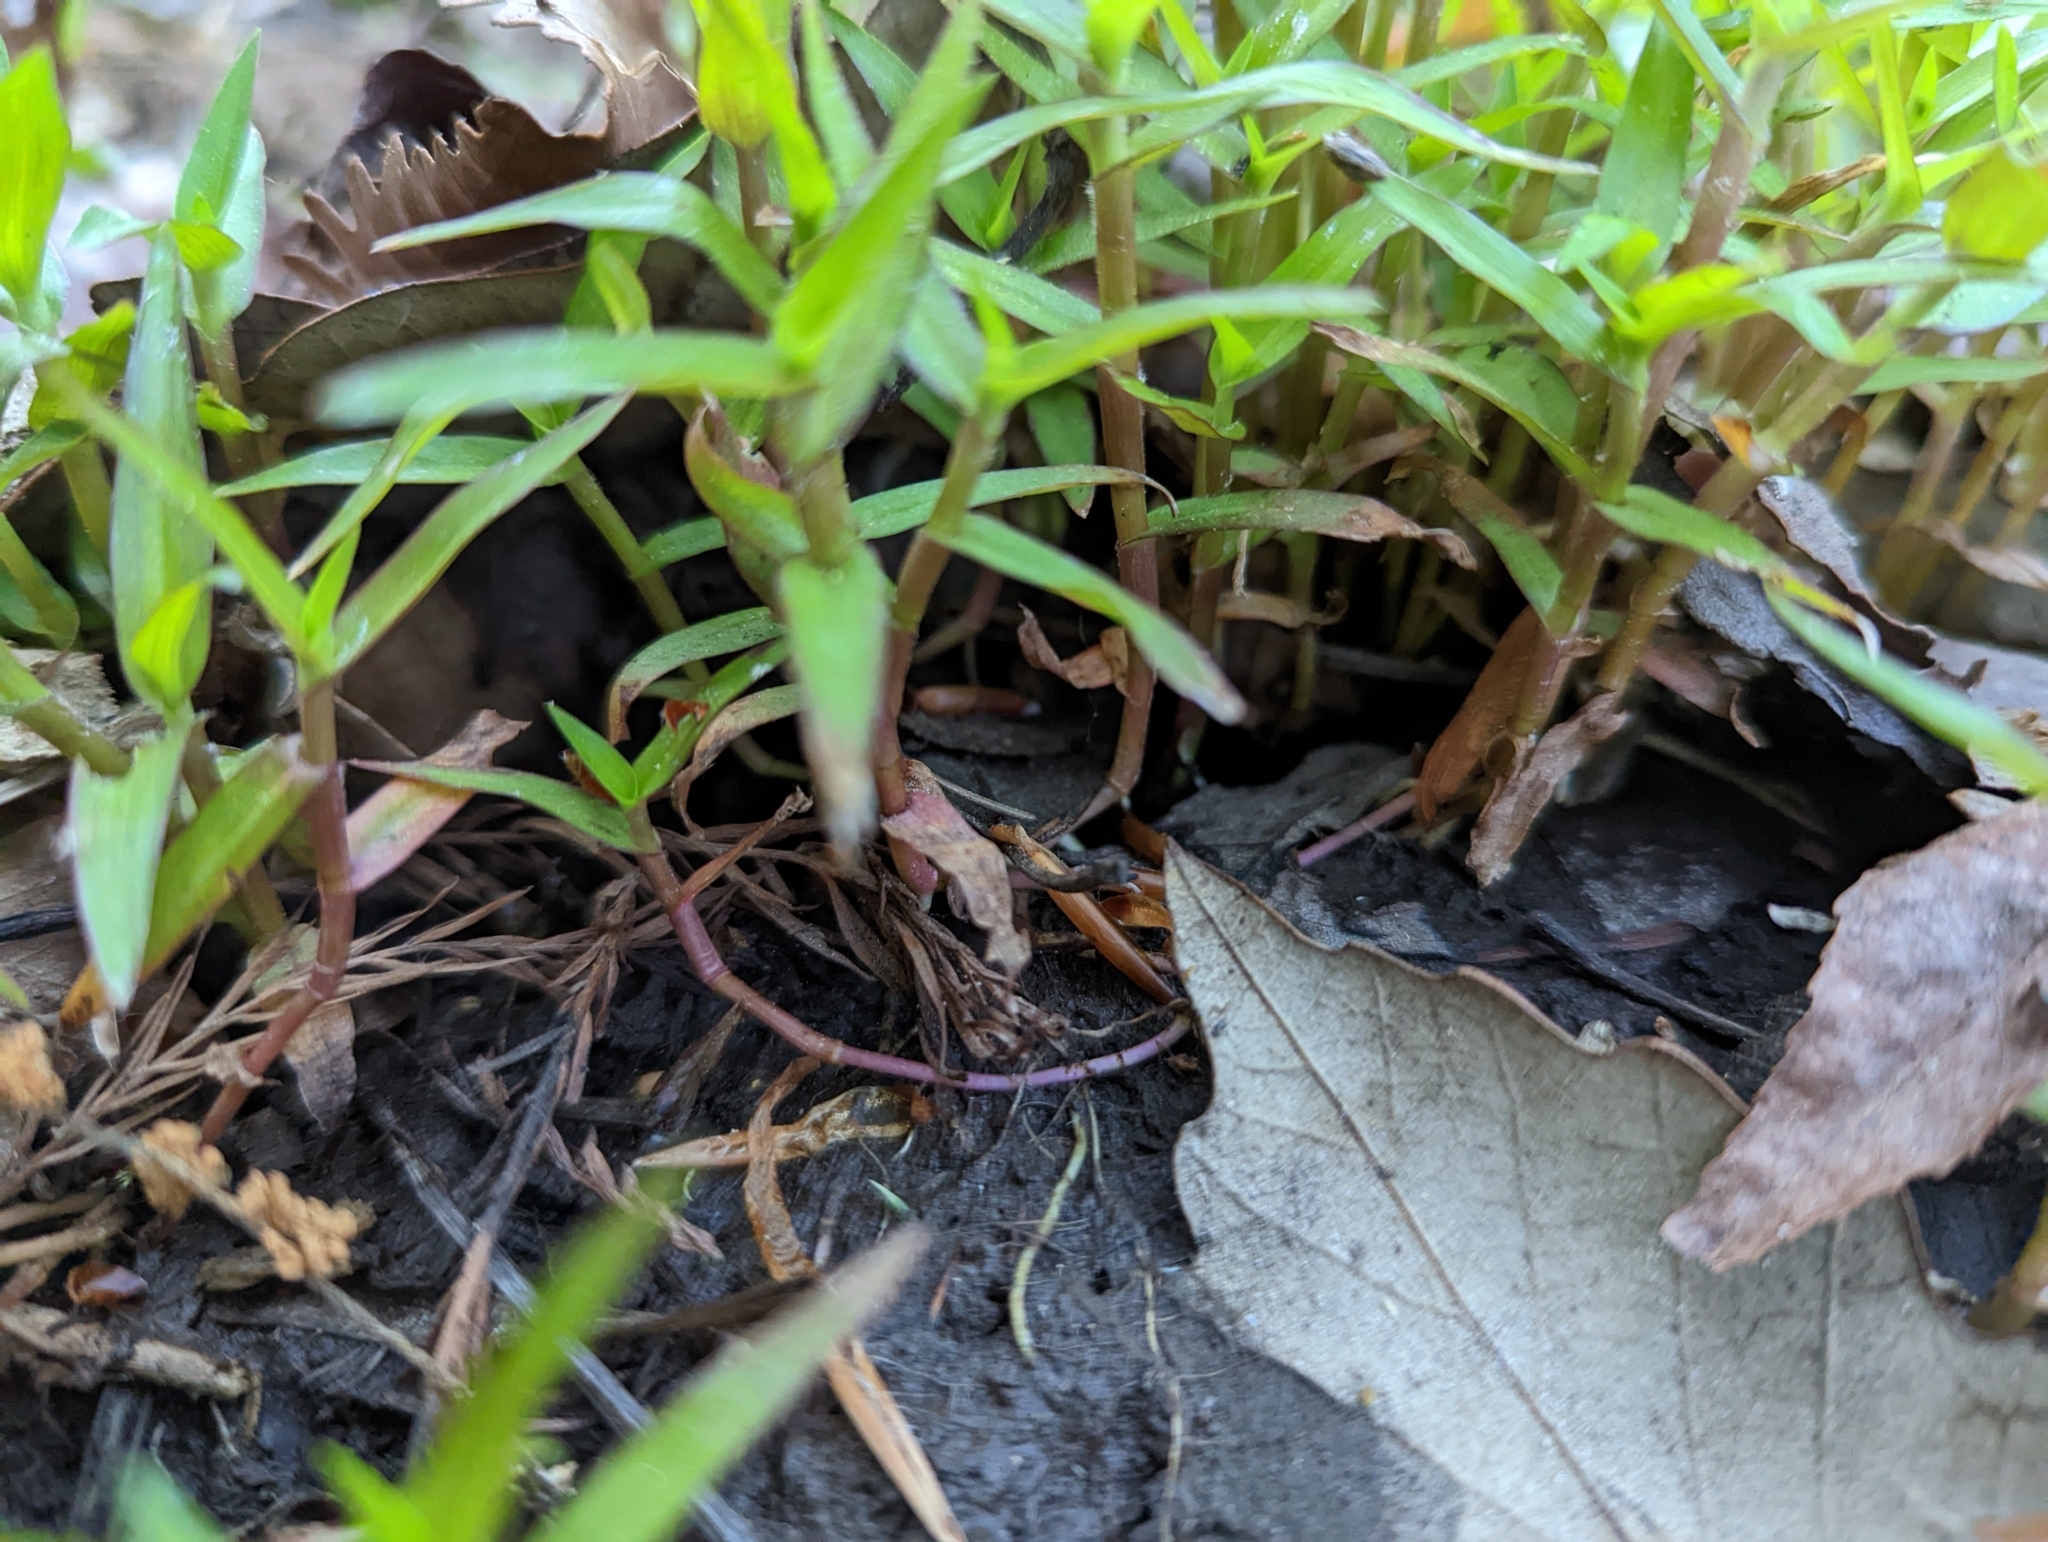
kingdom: Plantae
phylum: Tracheophyta
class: Liliopsida
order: Commelinales
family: Commelinaceae
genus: Murdannia
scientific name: Murdannia keisak
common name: Wartremoving herb
